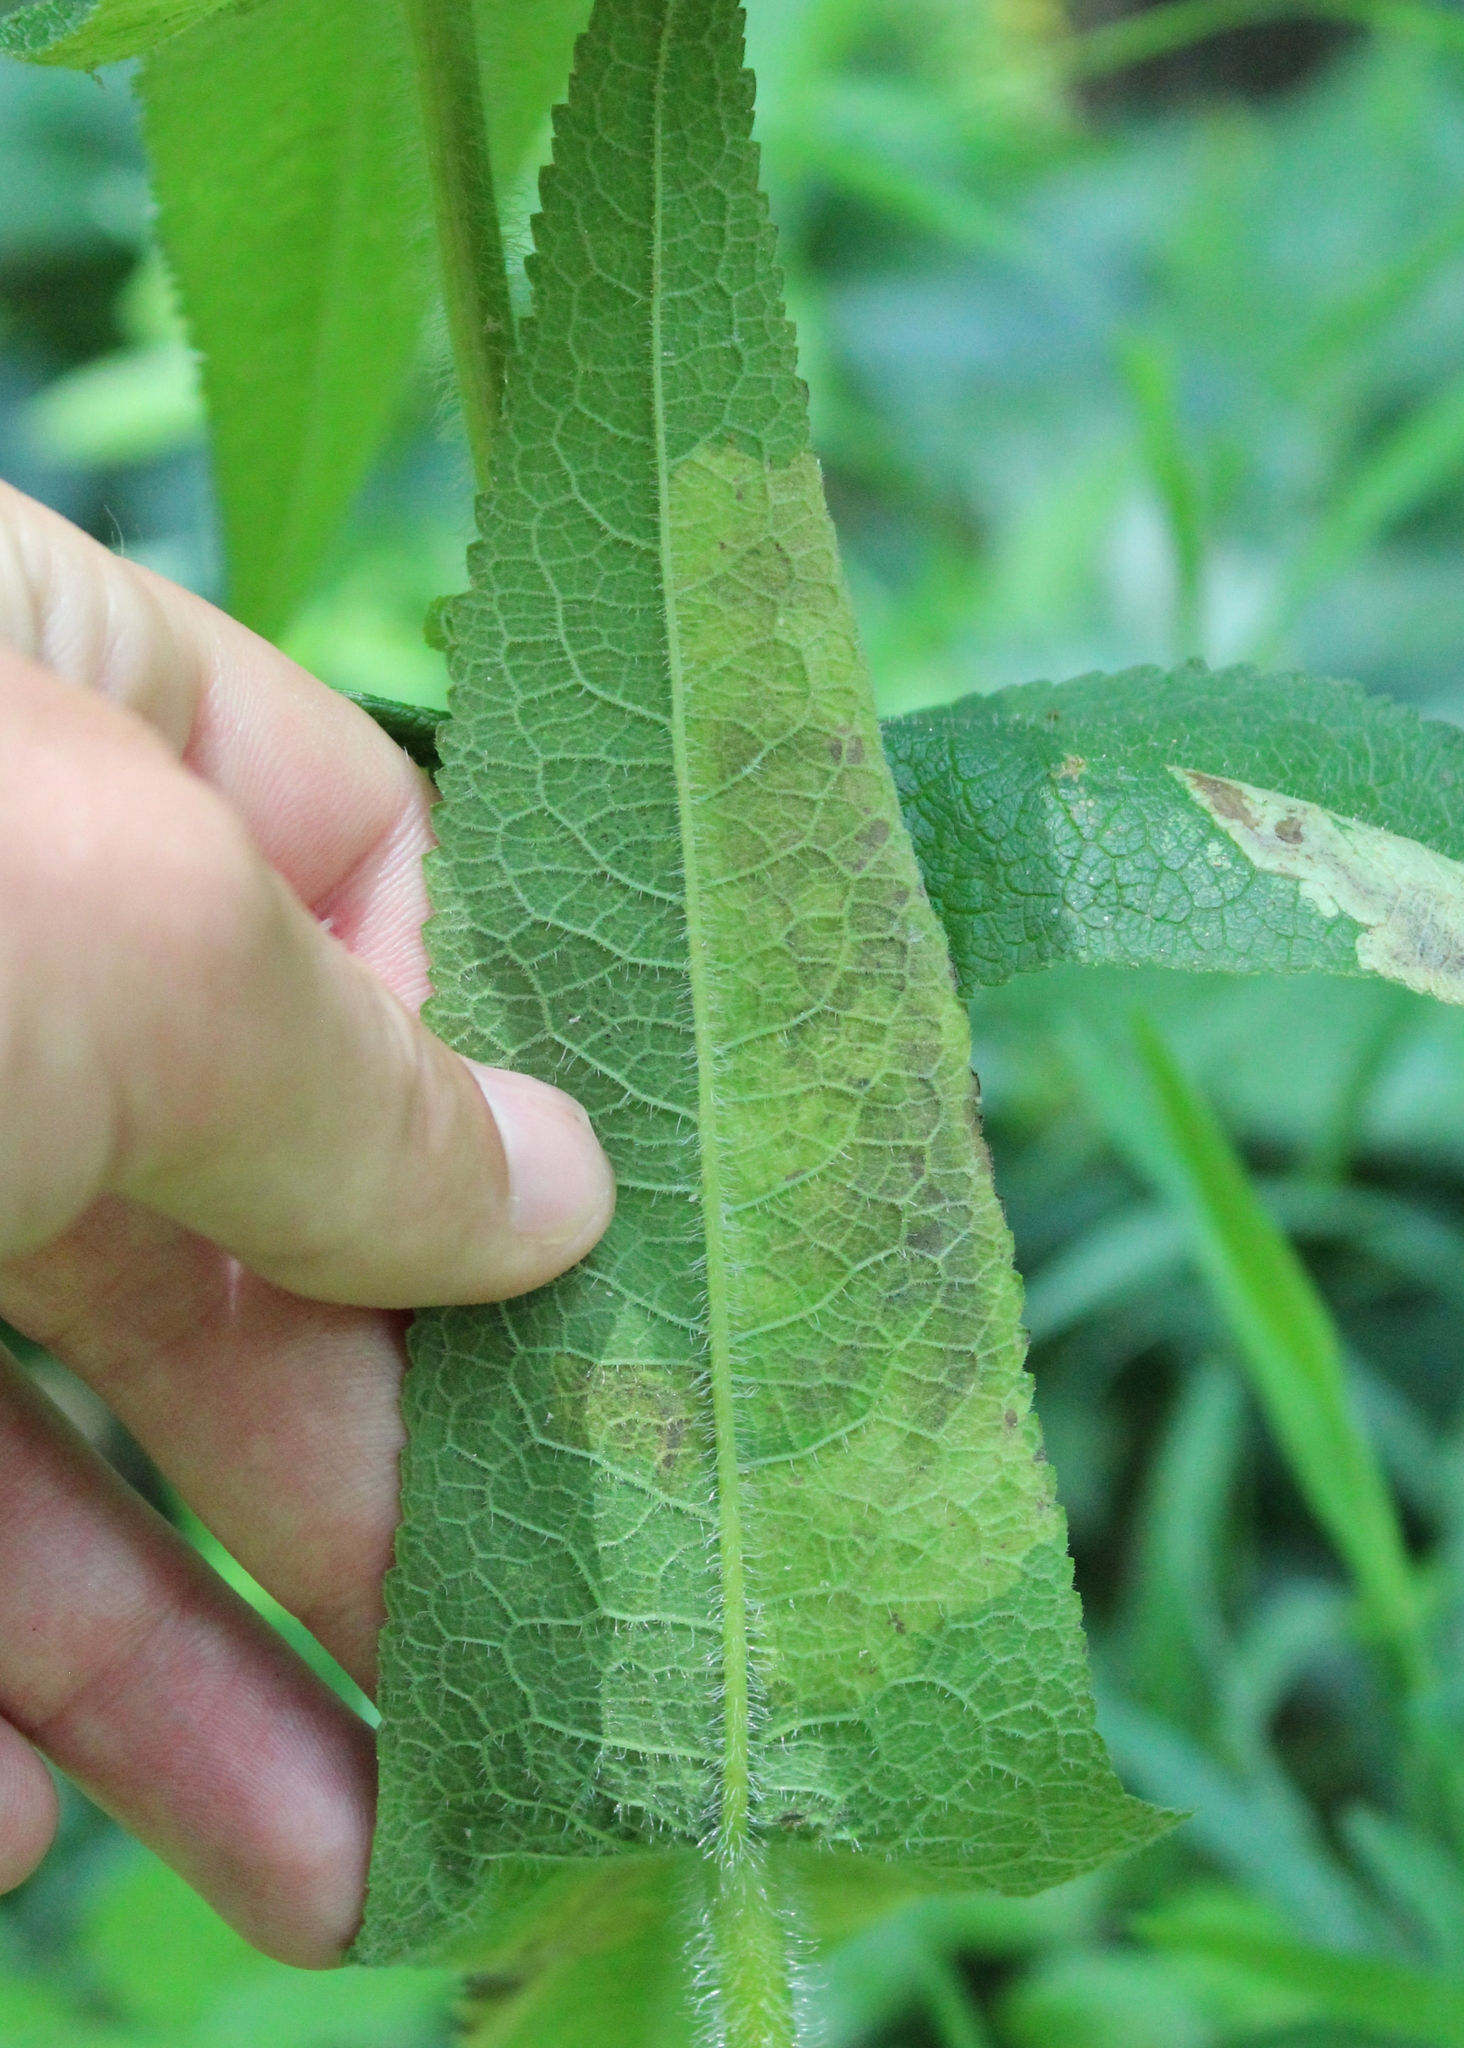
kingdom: Animalia
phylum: Arthropoda
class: Insecta
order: Diptera
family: Agromyzidae
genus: Calycomyza
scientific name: Calycomyza flavinotum
